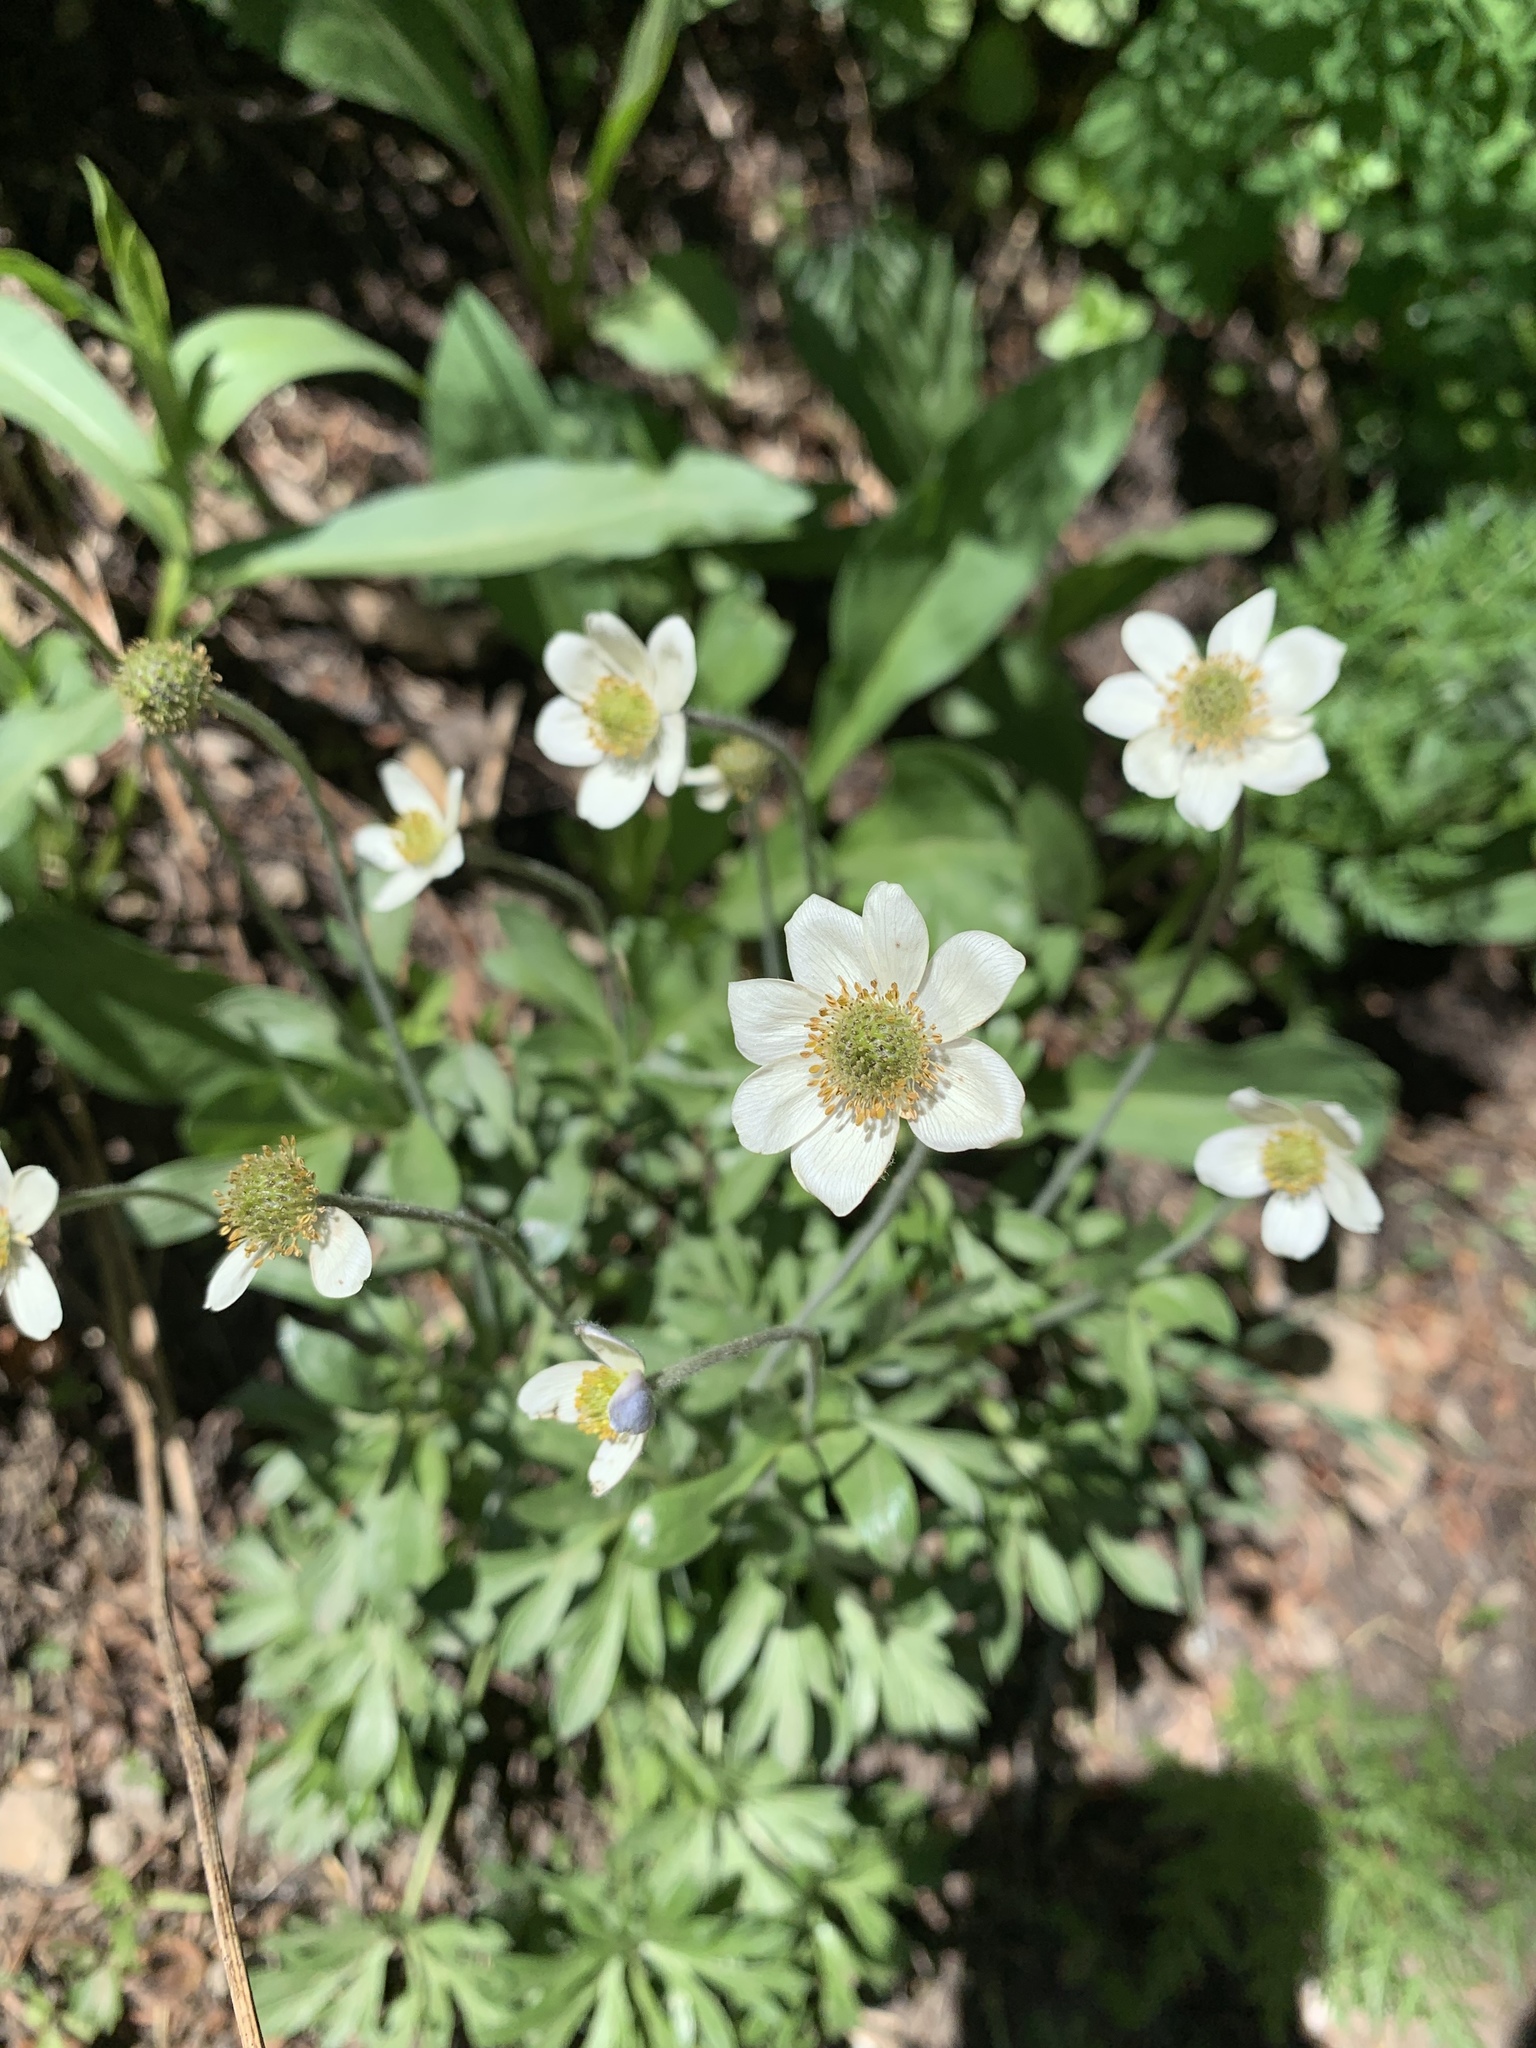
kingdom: Plantae
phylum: Tracheophyta
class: Magnoliopsida
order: Ranunculales
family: Ranunculaceae
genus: Anemone
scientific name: Anemone multifida
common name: Bird's-foot anemone
